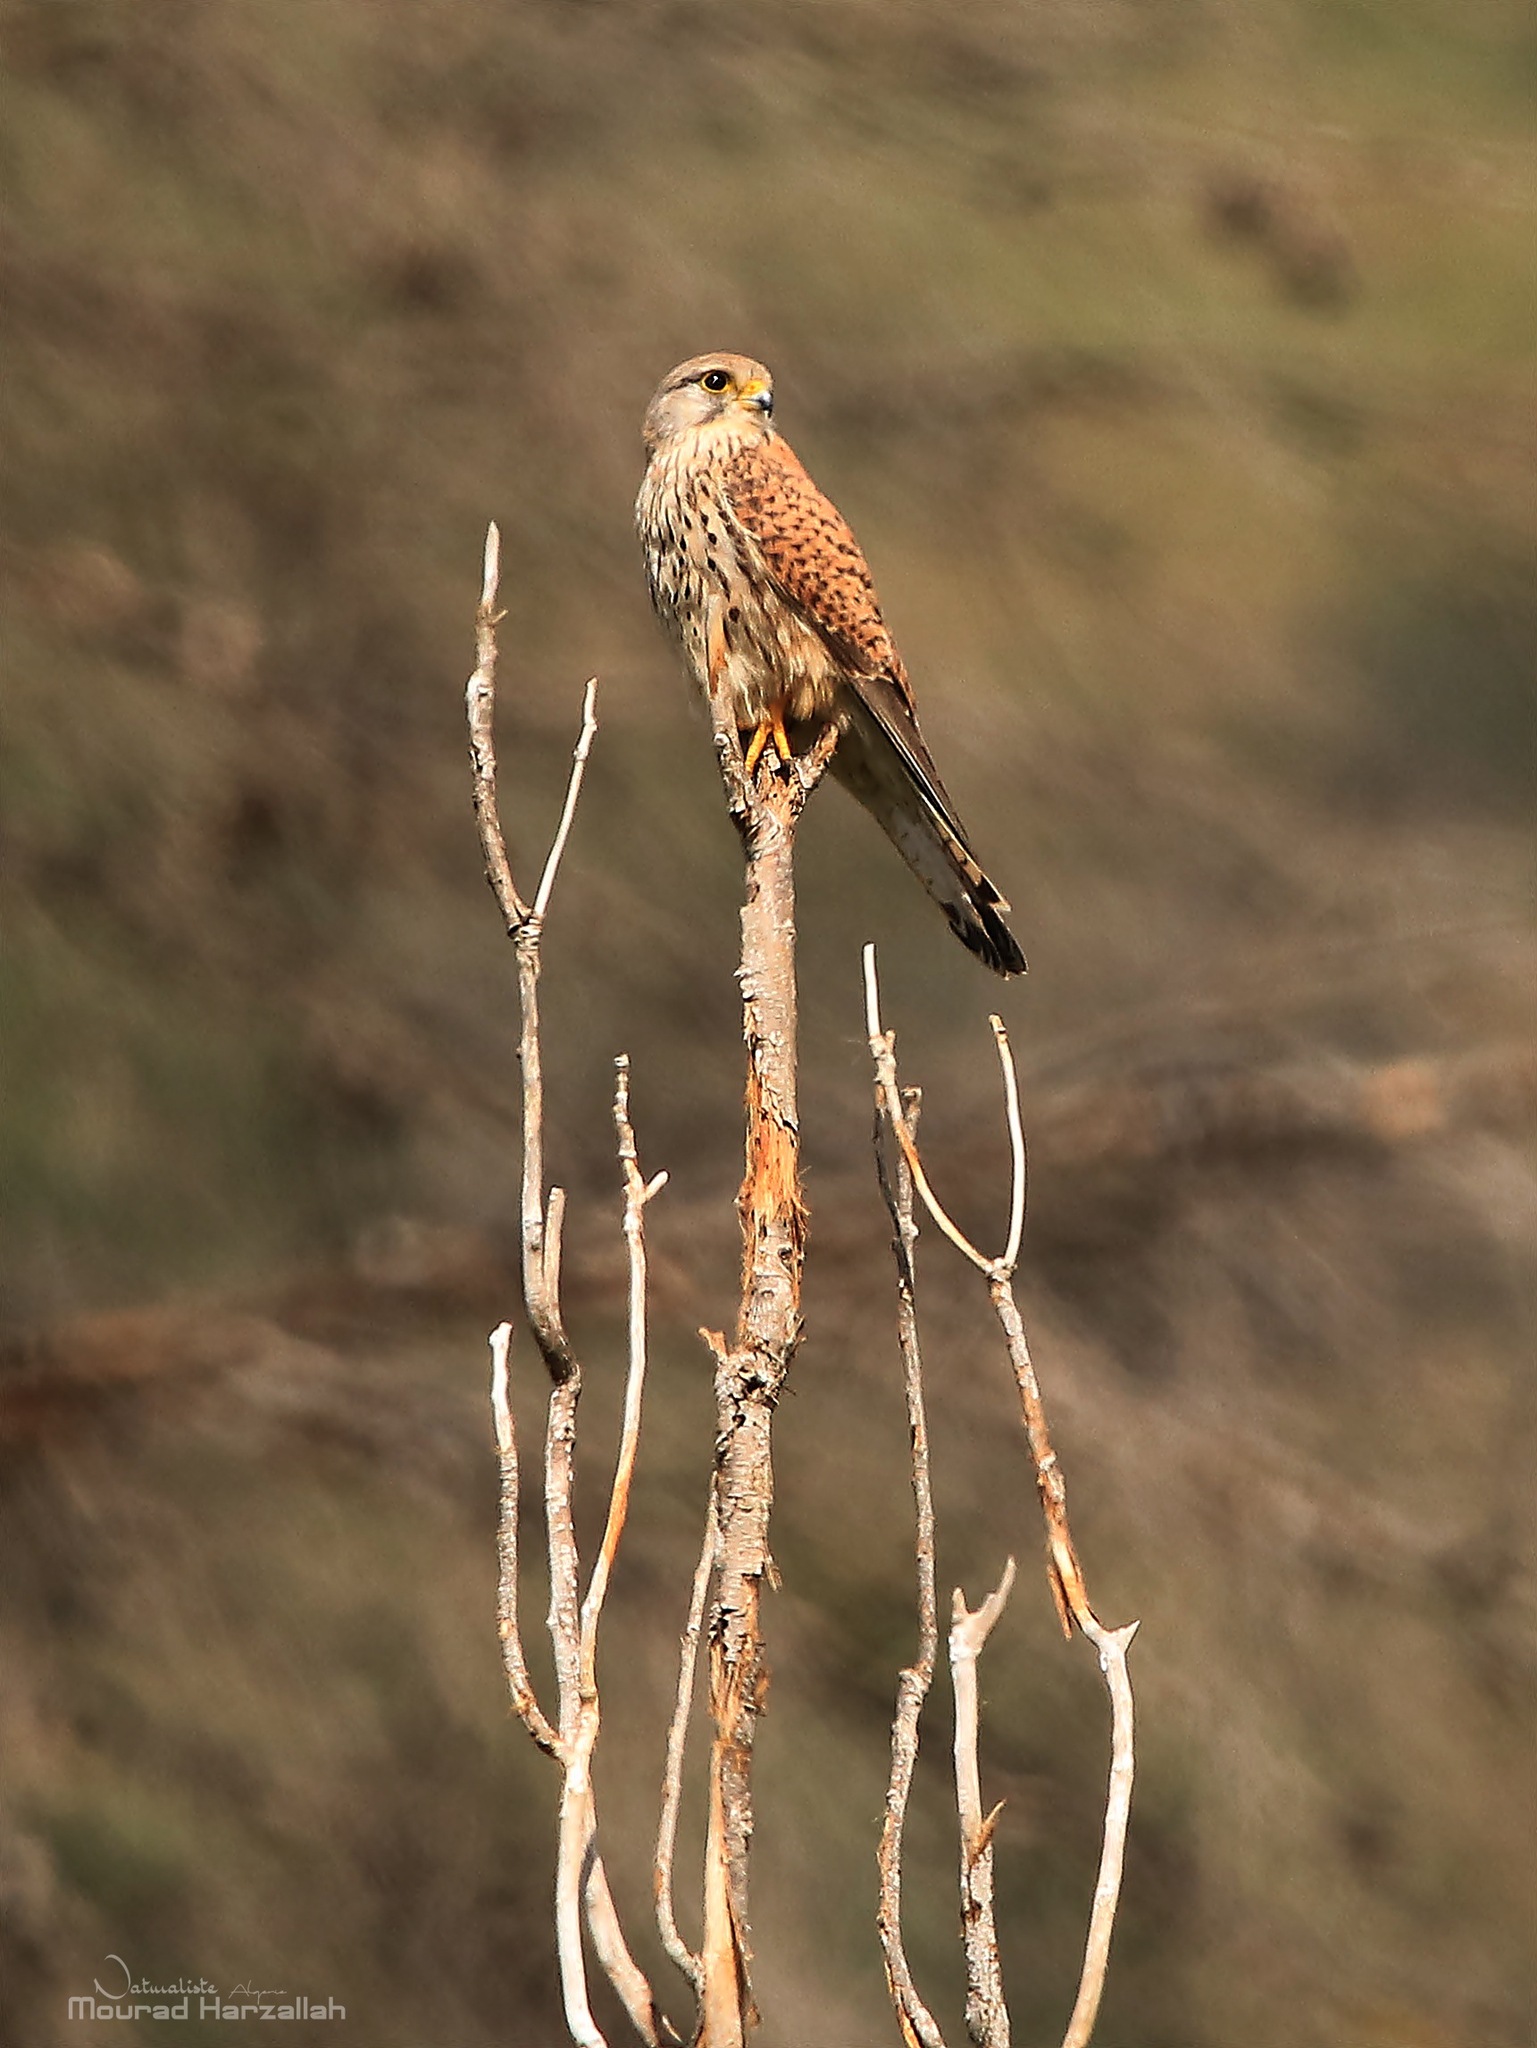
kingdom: Animalia
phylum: Chordata
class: Aves
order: Falconiformes
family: Falconidae
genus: Falco
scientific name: Falco tinnunculus
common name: Common kestrel
